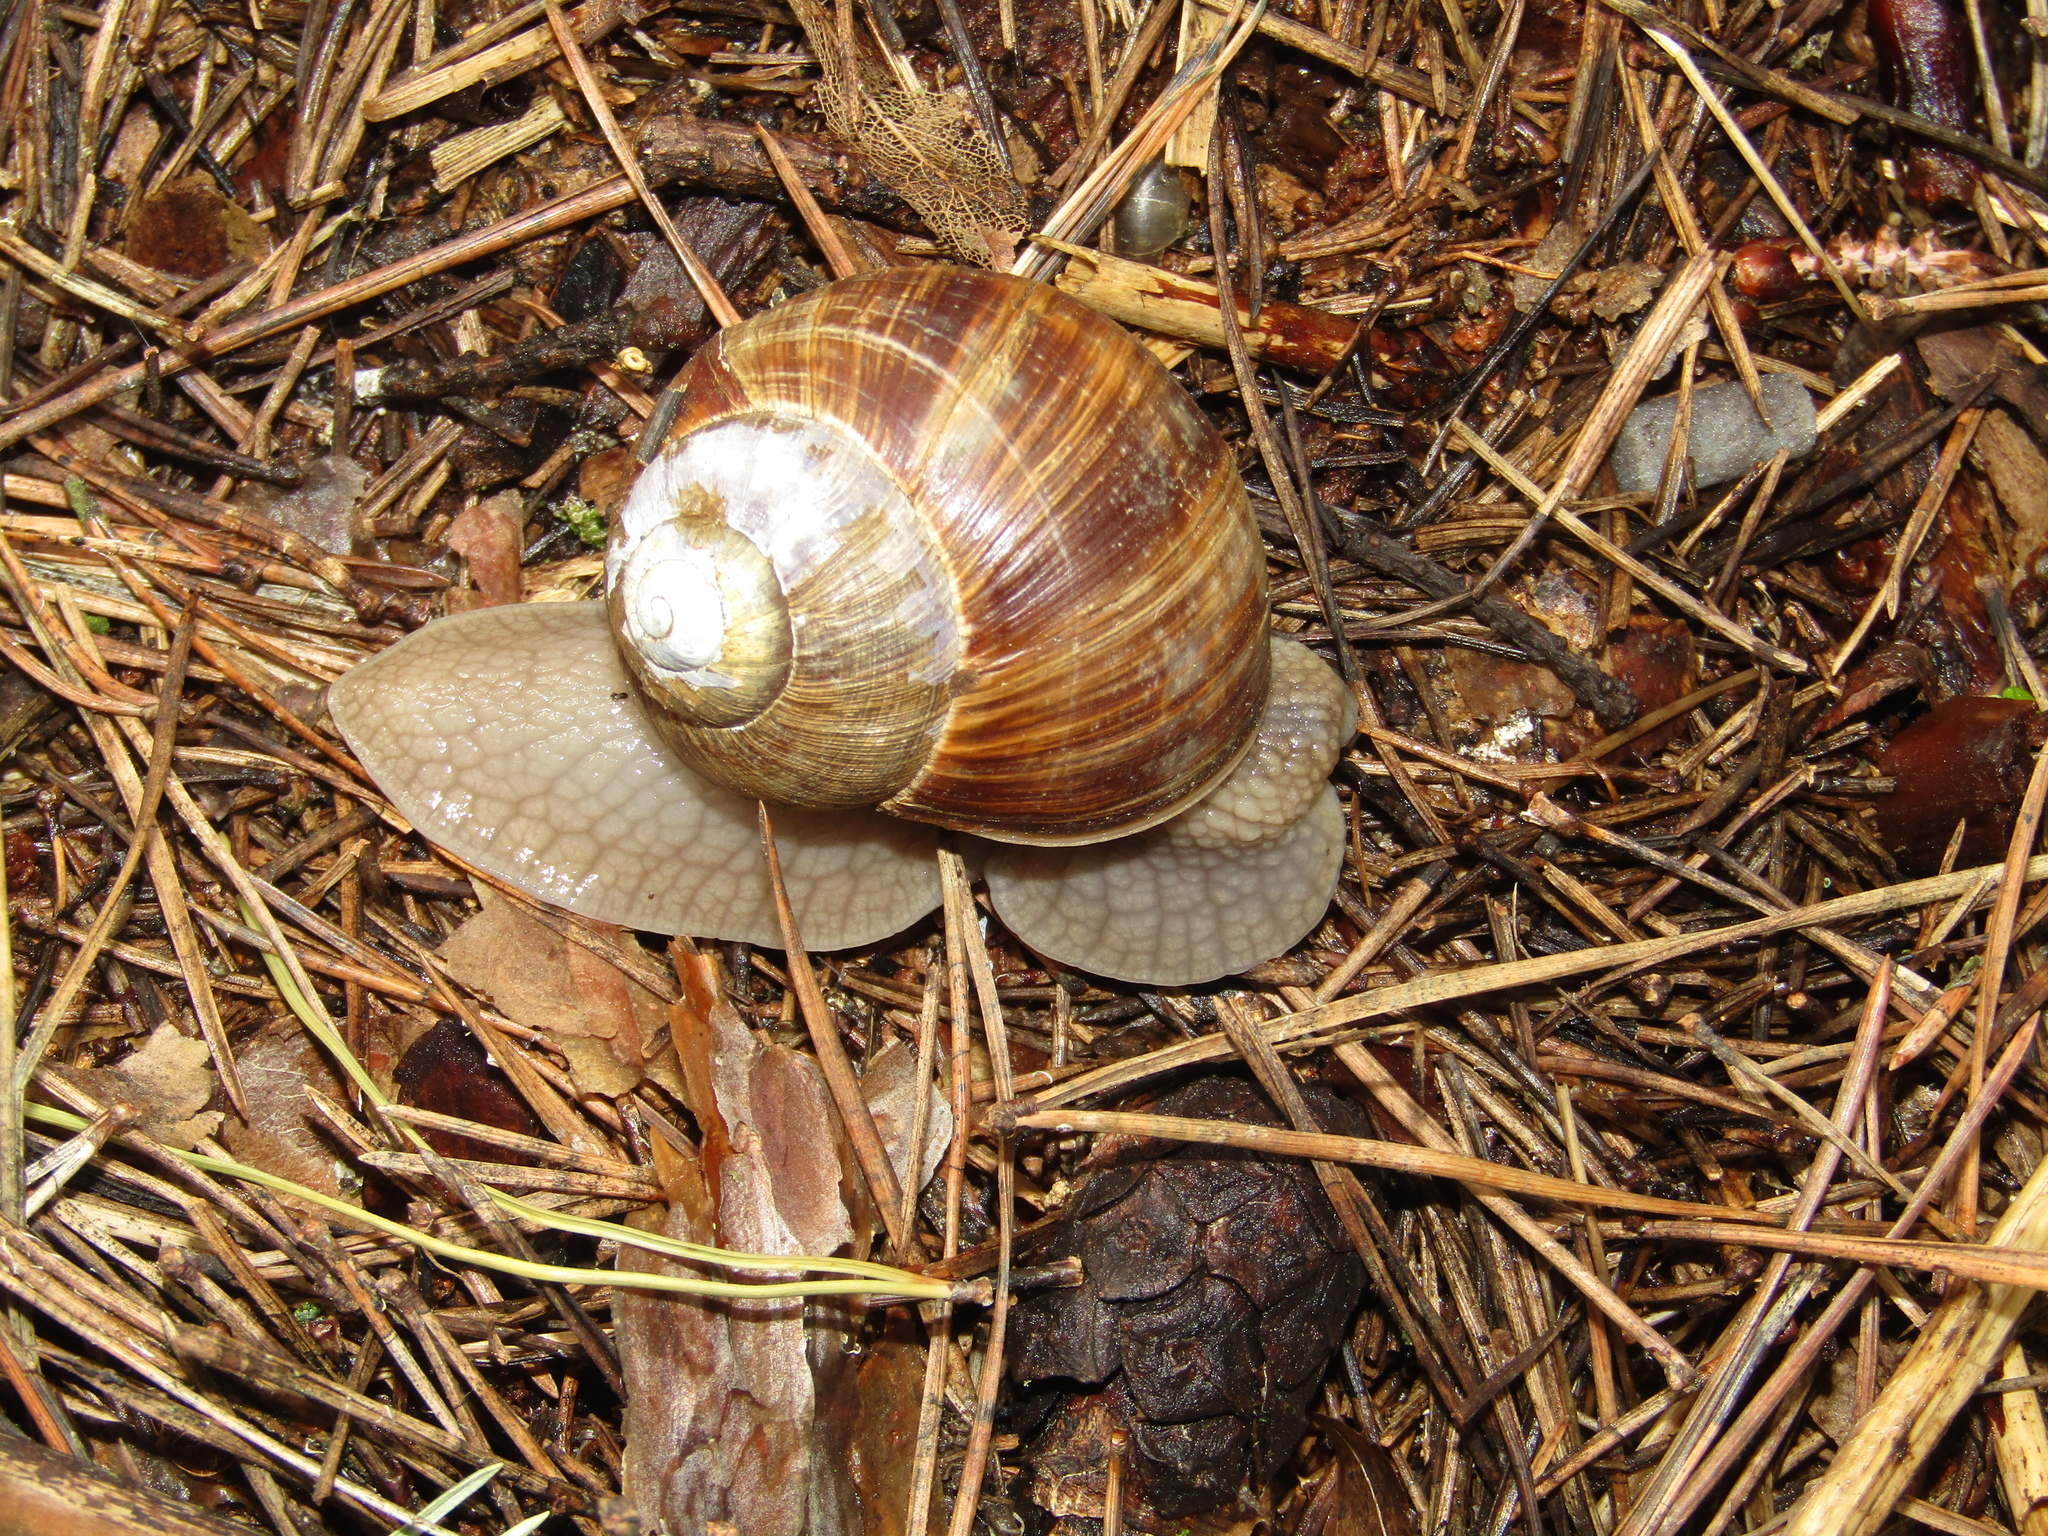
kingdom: Animalia
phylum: Mollusca
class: Gastropoda
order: Stylommatophora
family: Helicidae
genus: Helix
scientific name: Helix pomatia
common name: Roman snail
